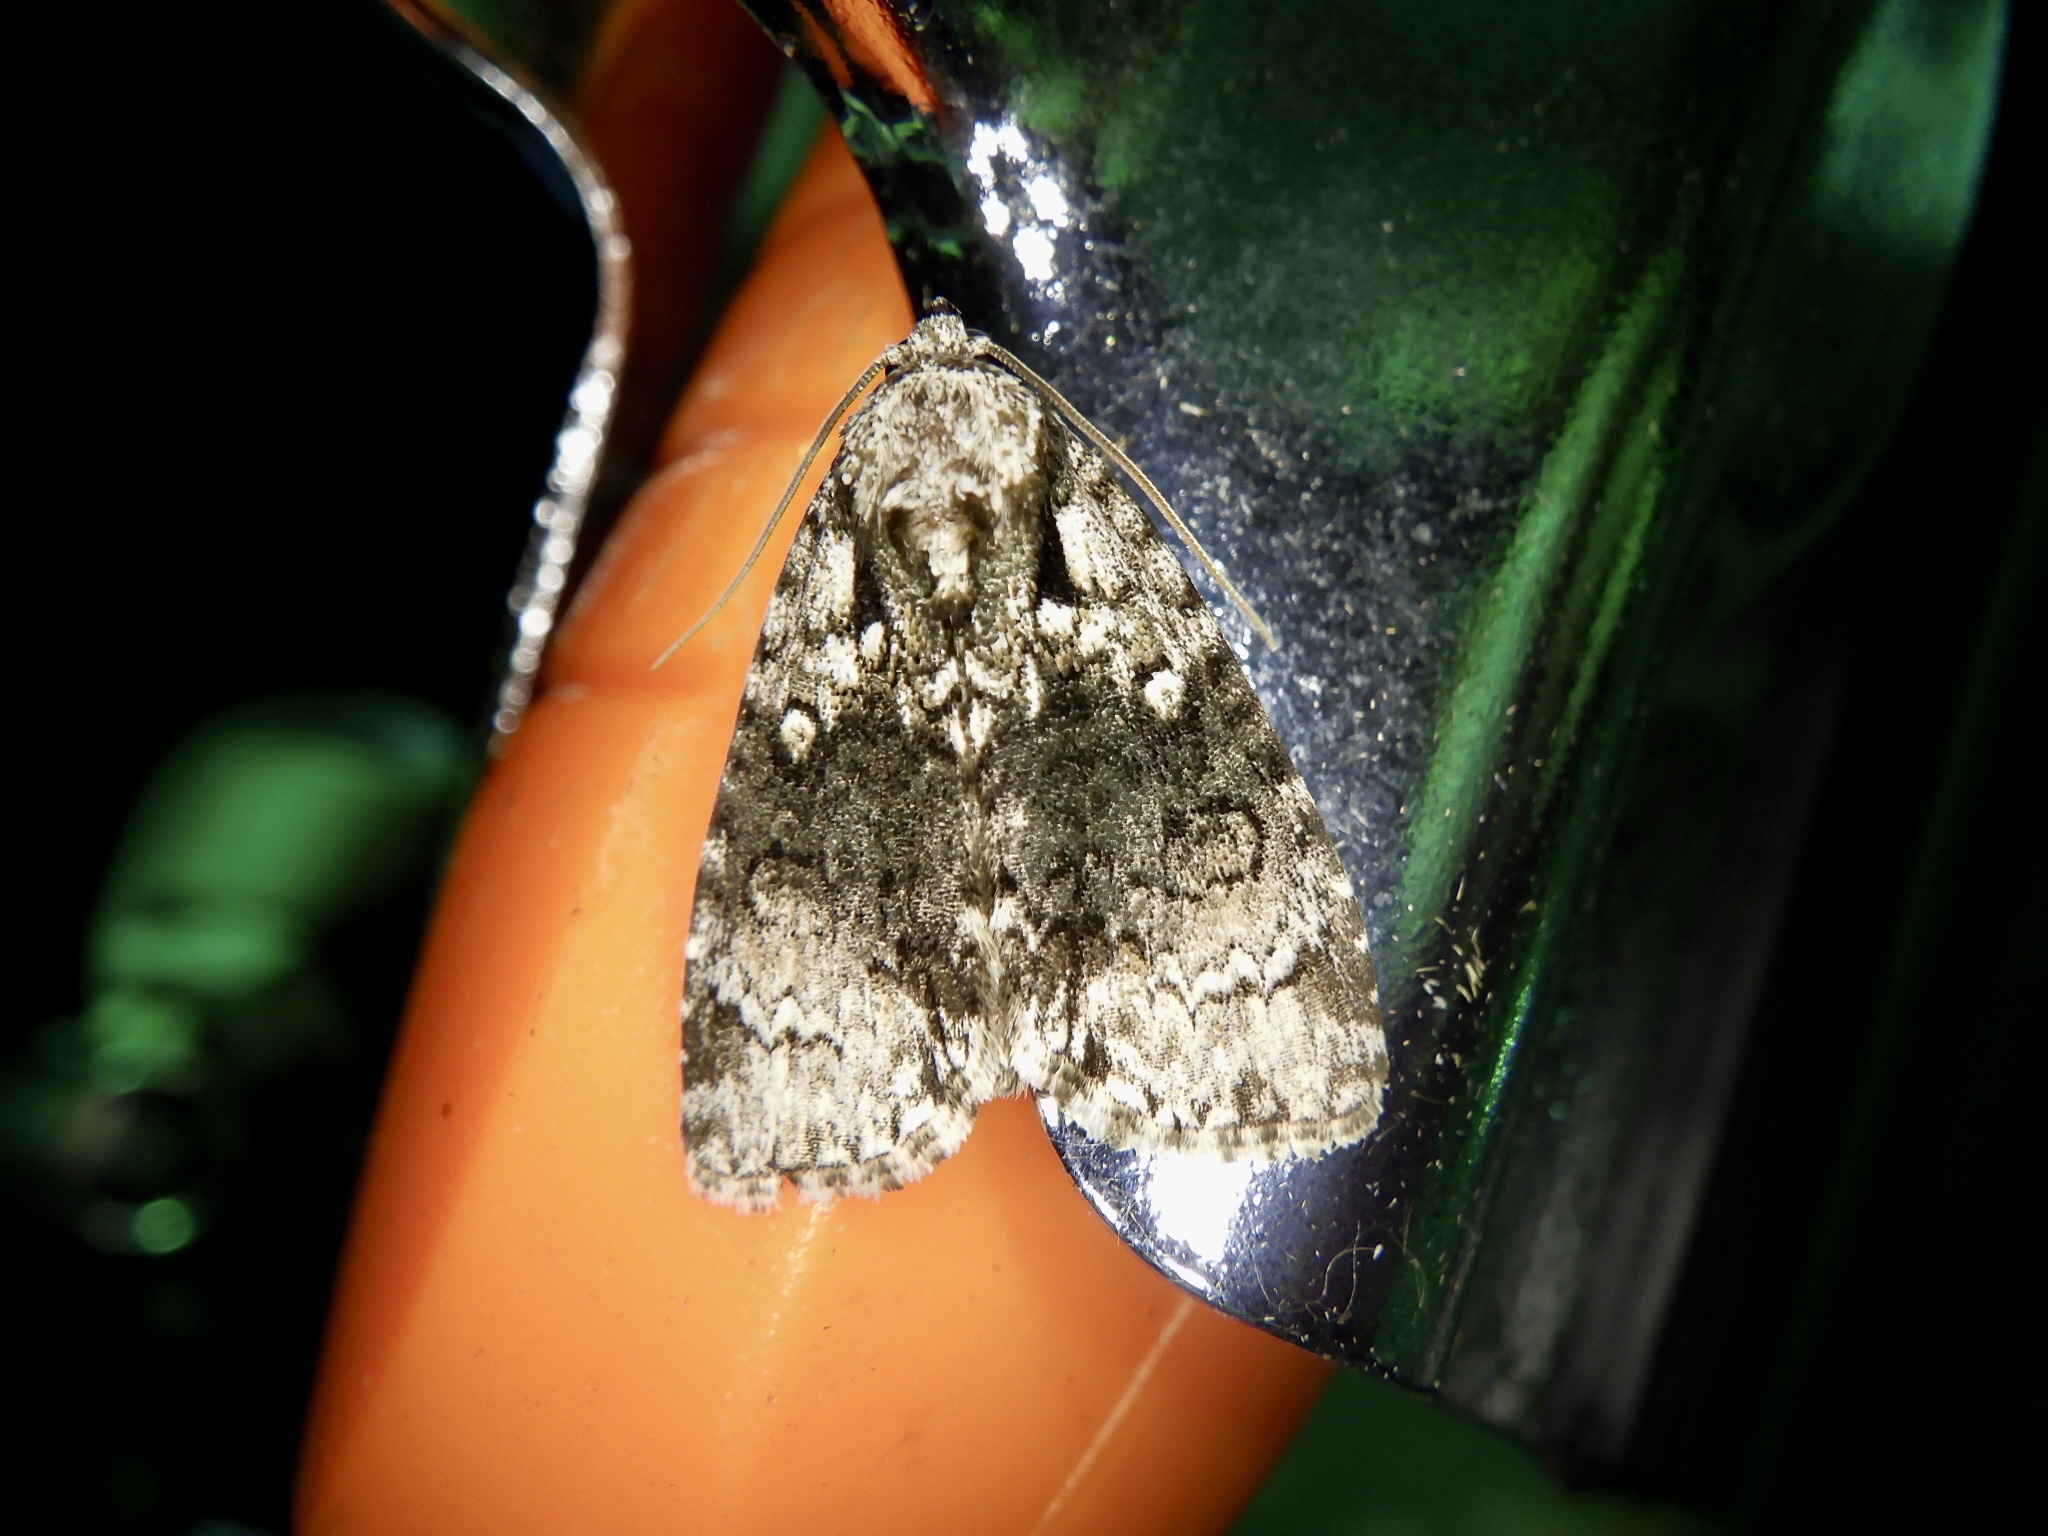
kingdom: Animalia
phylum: Arthropoda
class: Insecta
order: Lepidoptera
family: Noctuidae
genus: Cranionycta
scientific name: Cranionycta jankowskii
